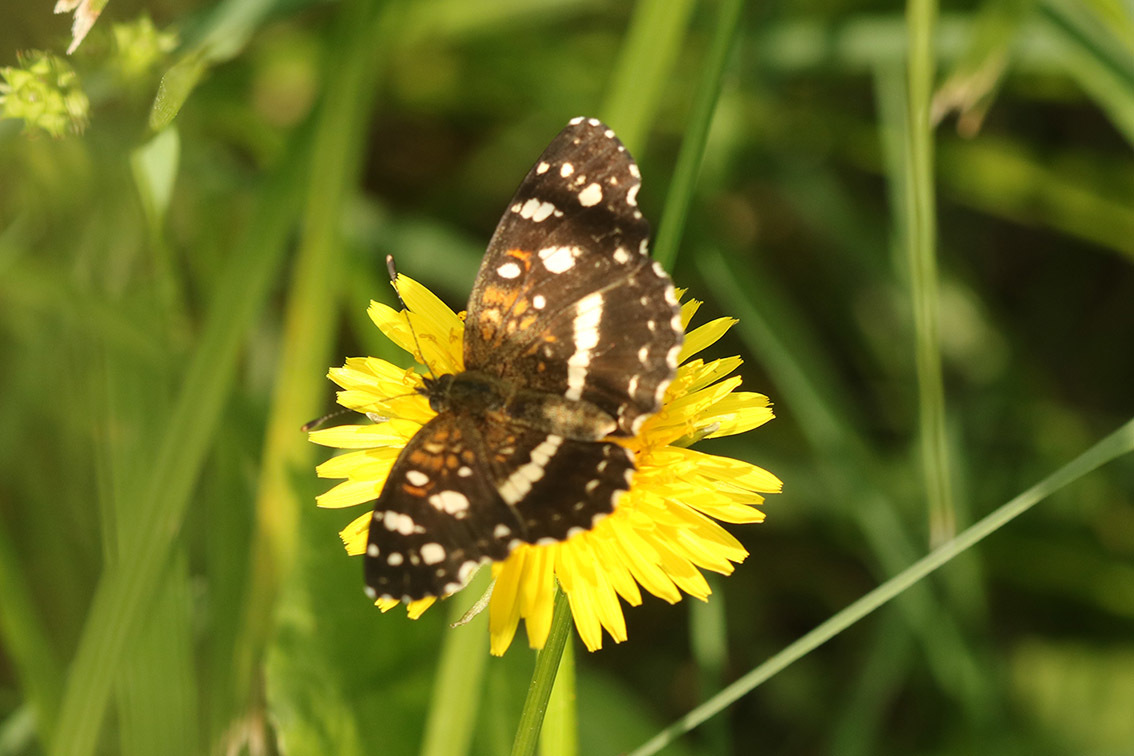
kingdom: Animalia
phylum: Arthropoda
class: Insecta
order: Lepidoptera
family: Nymphalidae
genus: Ortilia
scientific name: Ortilia ithra
